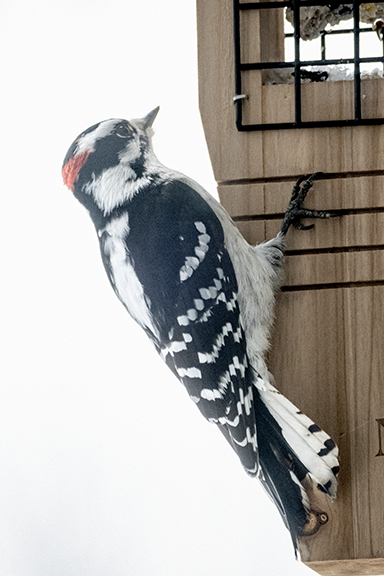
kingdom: Animalia
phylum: Chordata
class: Aves
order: Piciformes
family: Picidae
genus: Dryobates
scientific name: Dryobates pubescens
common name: Downy woodpecker
